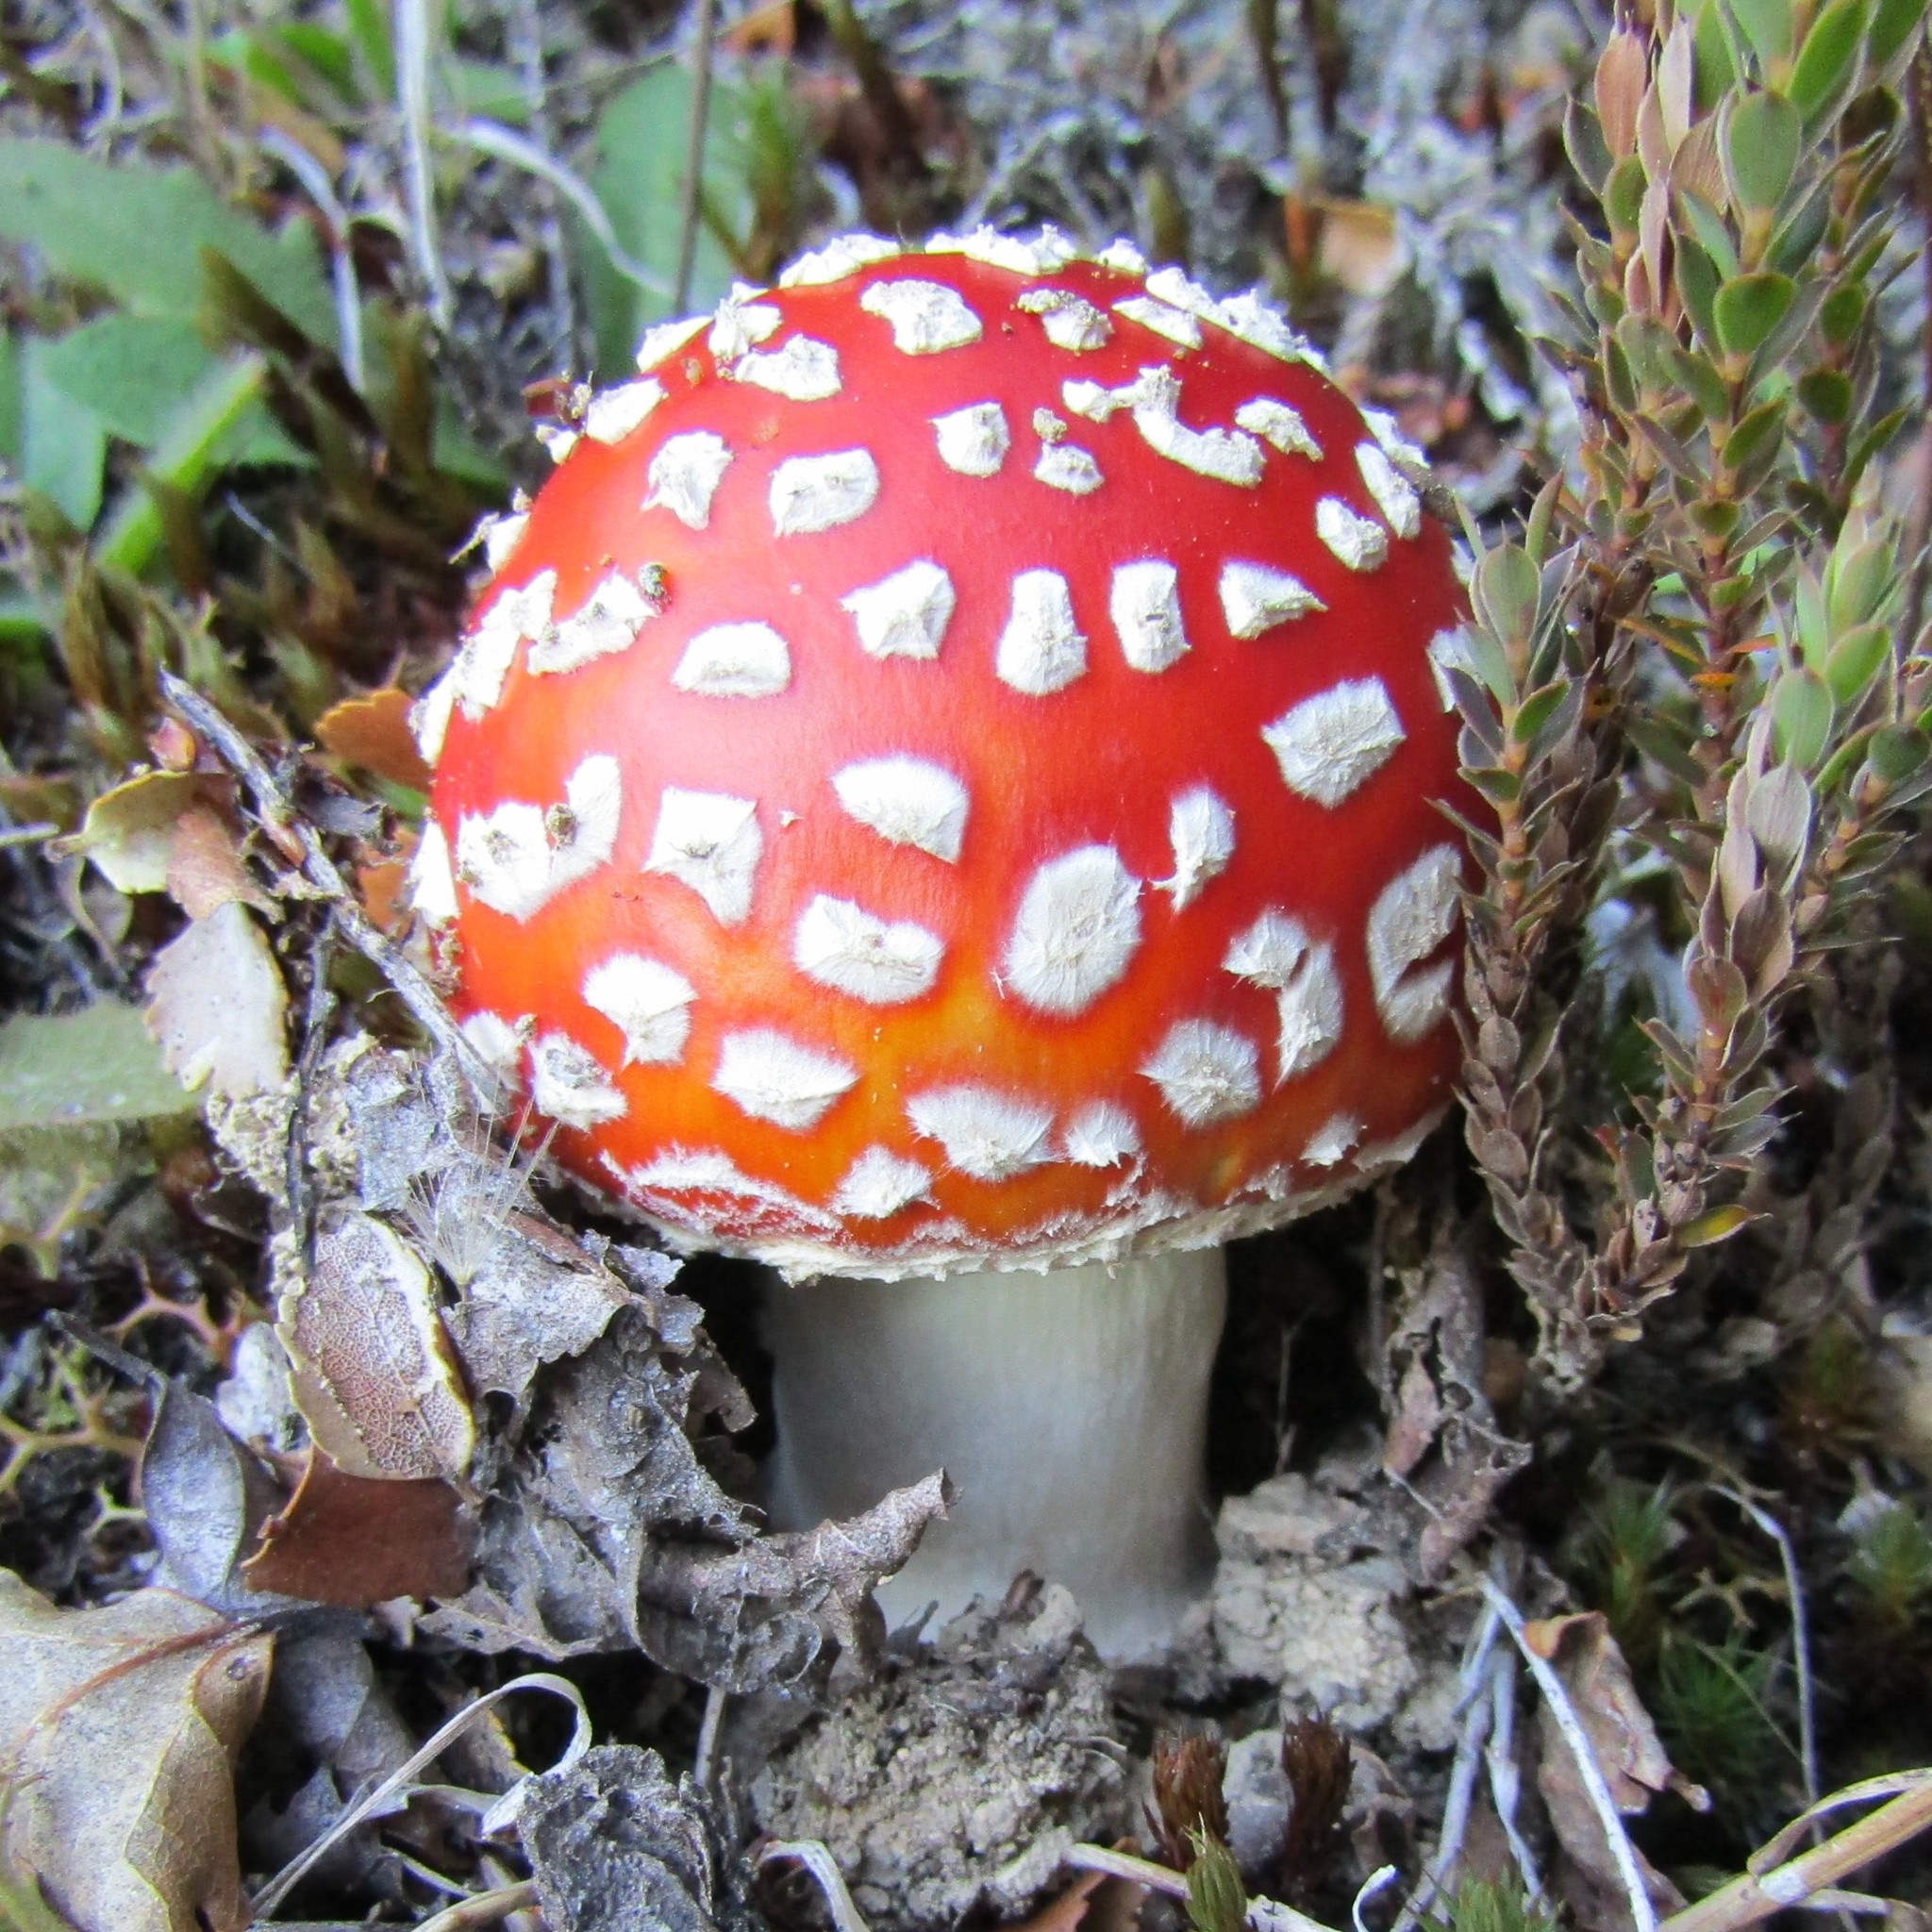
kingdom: Fungi
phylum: Basidiomycota
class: Agaricomycetes
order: Agaricales
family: Amanitaceae
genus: Amanita
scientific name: Amanita muscaria
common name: Fly agaric
